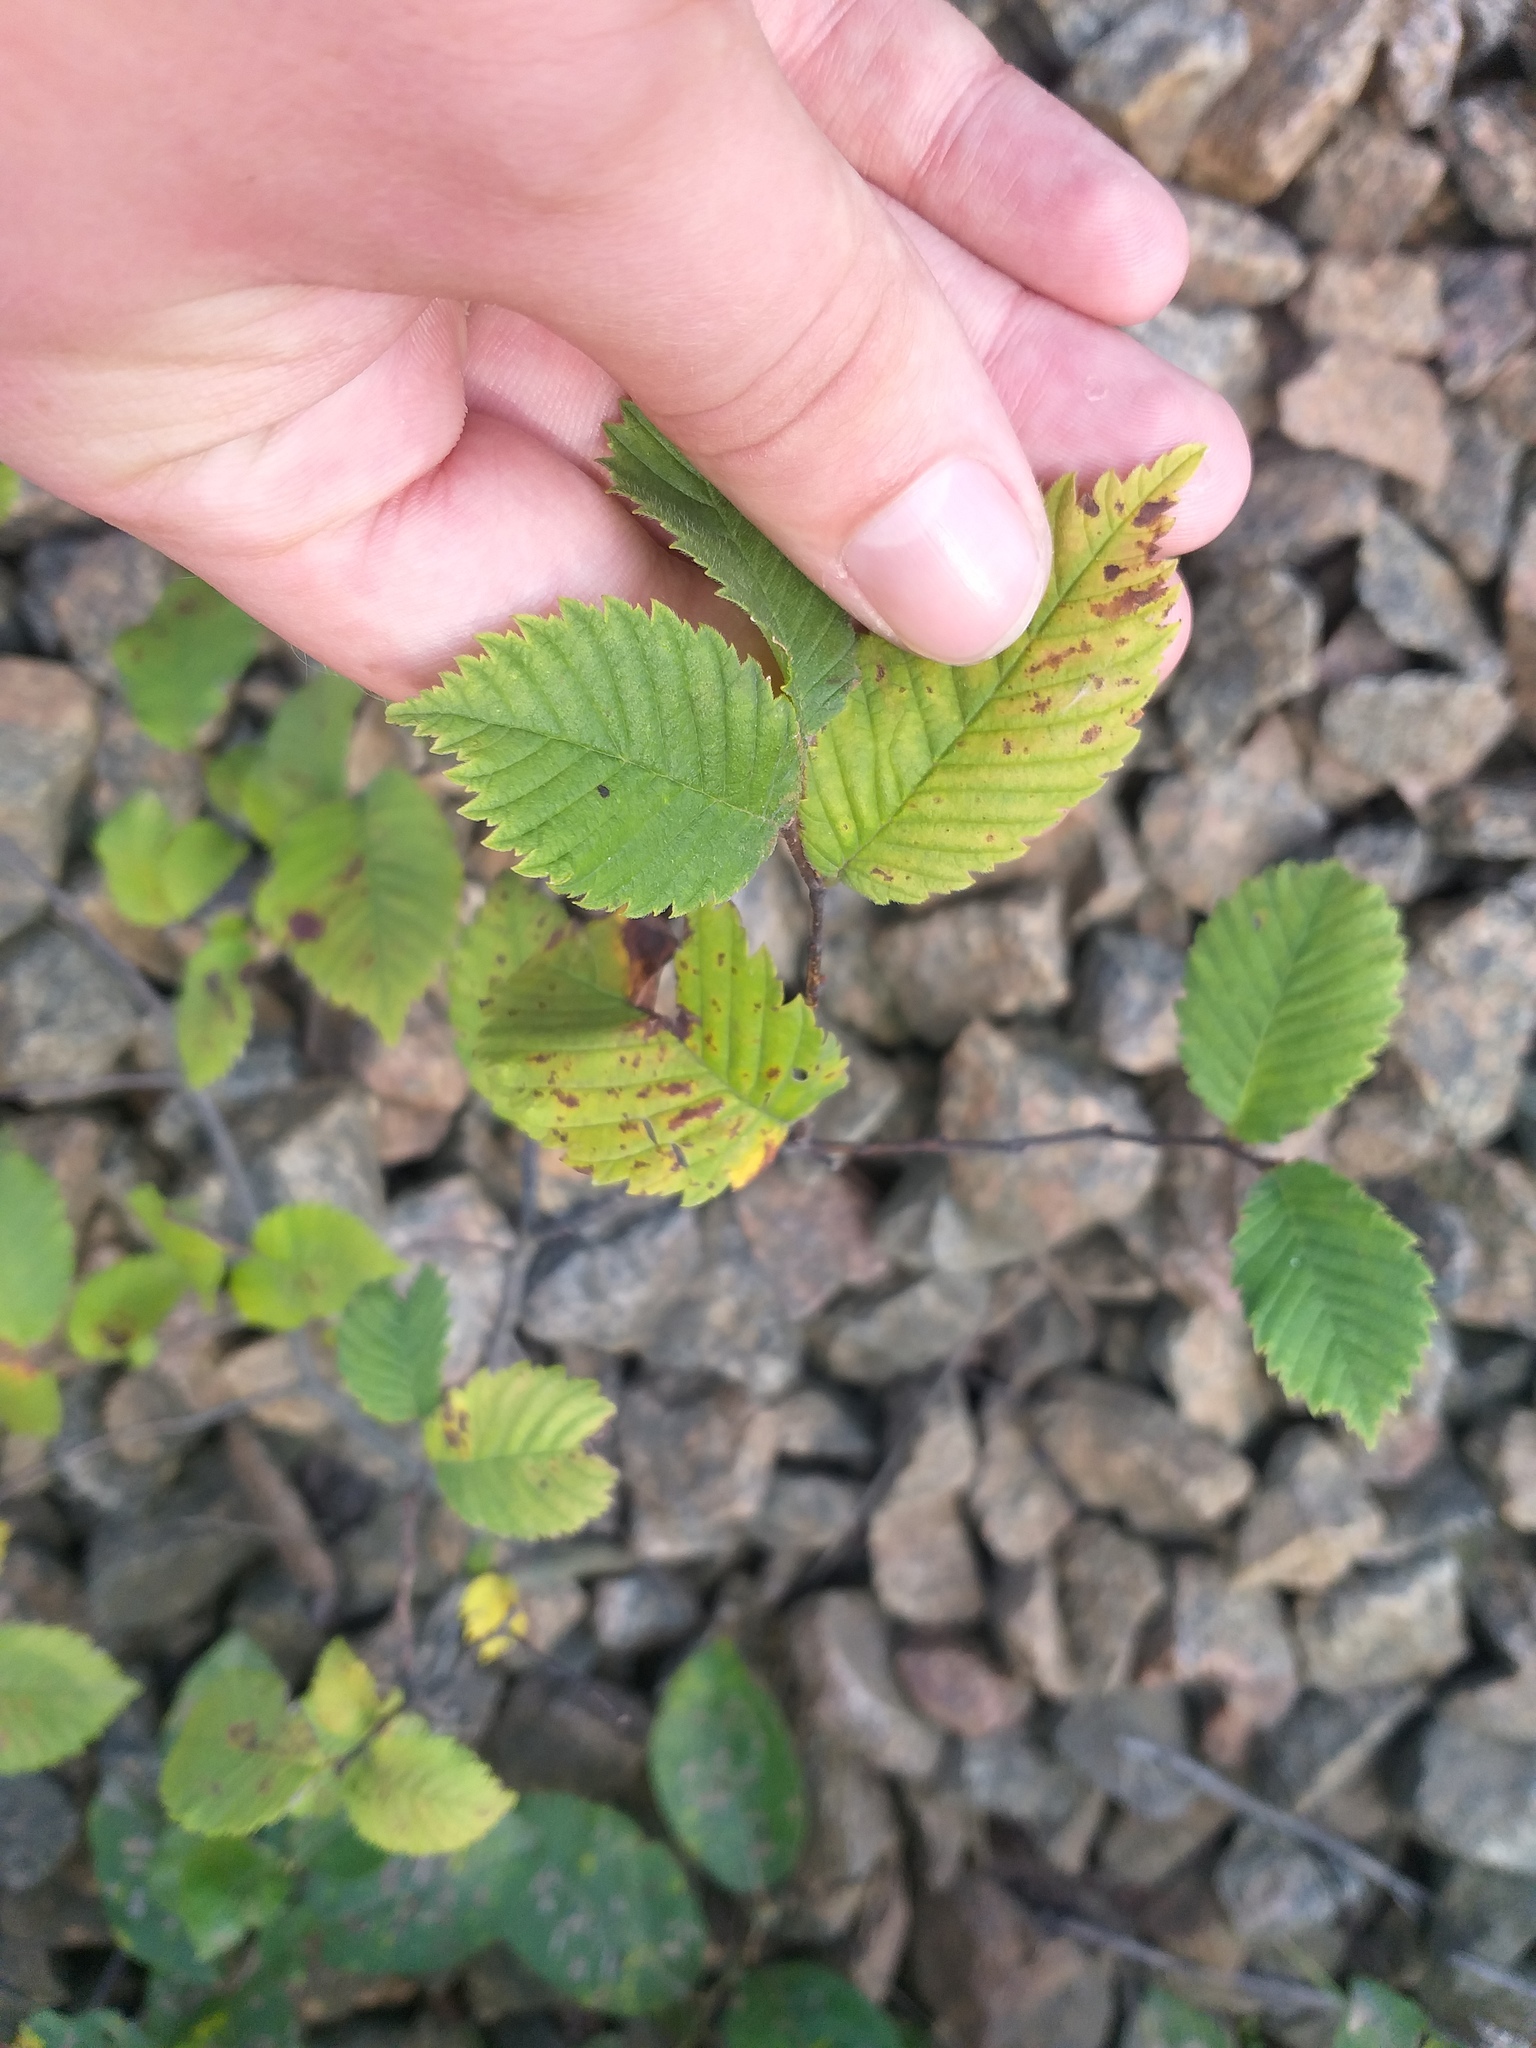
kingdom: Plantae
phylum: Tracheophyta
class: Magnoliopsida
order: Rosales
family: Ulmaceae
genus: Ulmus
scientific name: Ulmus laevis
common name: European white-elm
